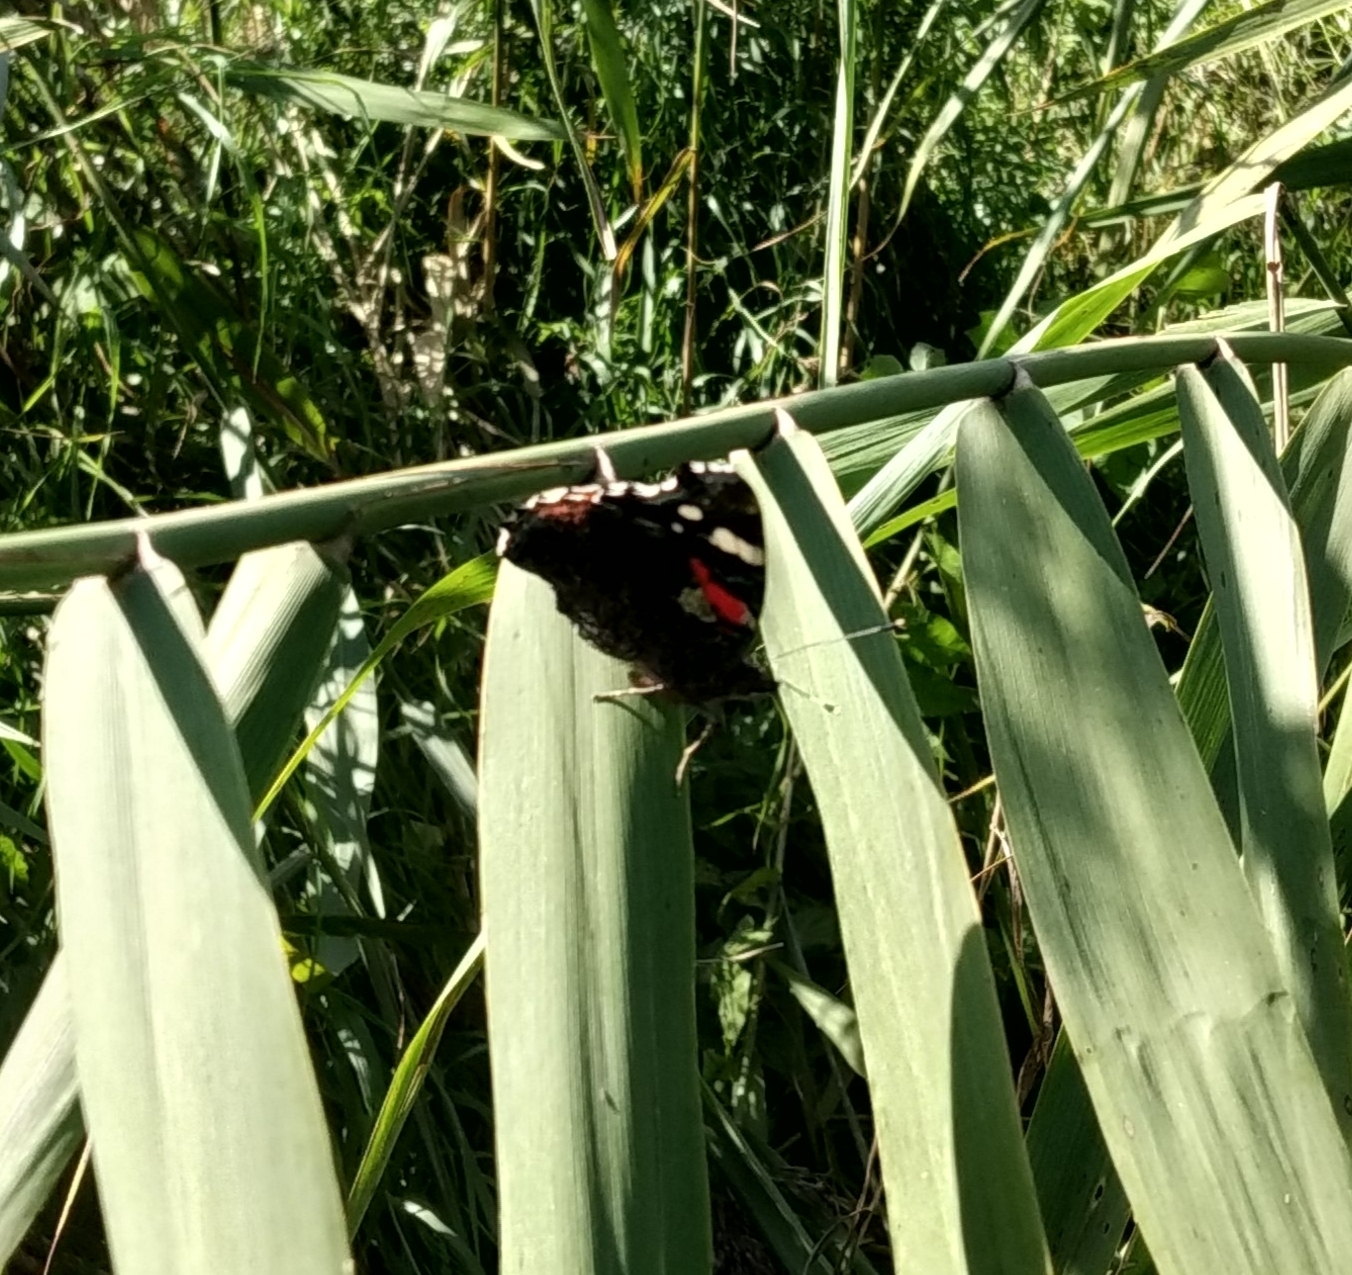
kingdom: Animalia
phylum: Arthropoda
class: Insecta
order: Lepidoptera
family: Nymphalidae
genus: Vanessa
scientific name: Vanessa atalanta
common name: Red admiral
